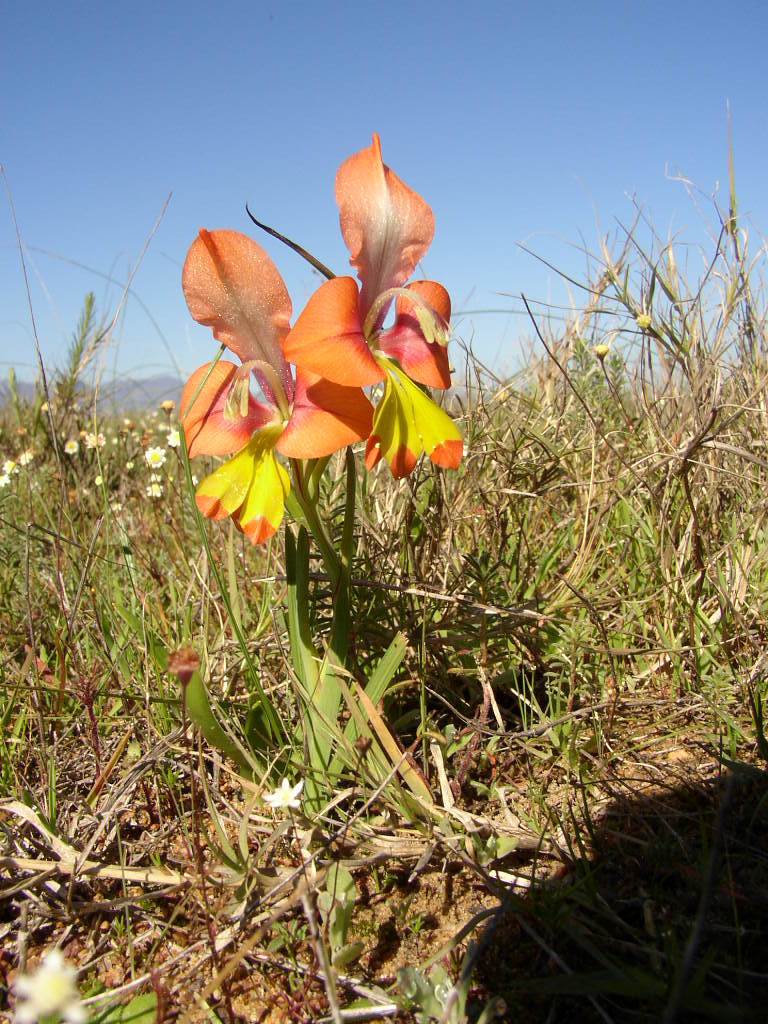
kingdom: Plantae
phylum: Tracheophyta
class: Liliopsida
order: Asparagales
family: Iridaceae
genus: Gladiolus
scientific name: Gladiolus alatus
